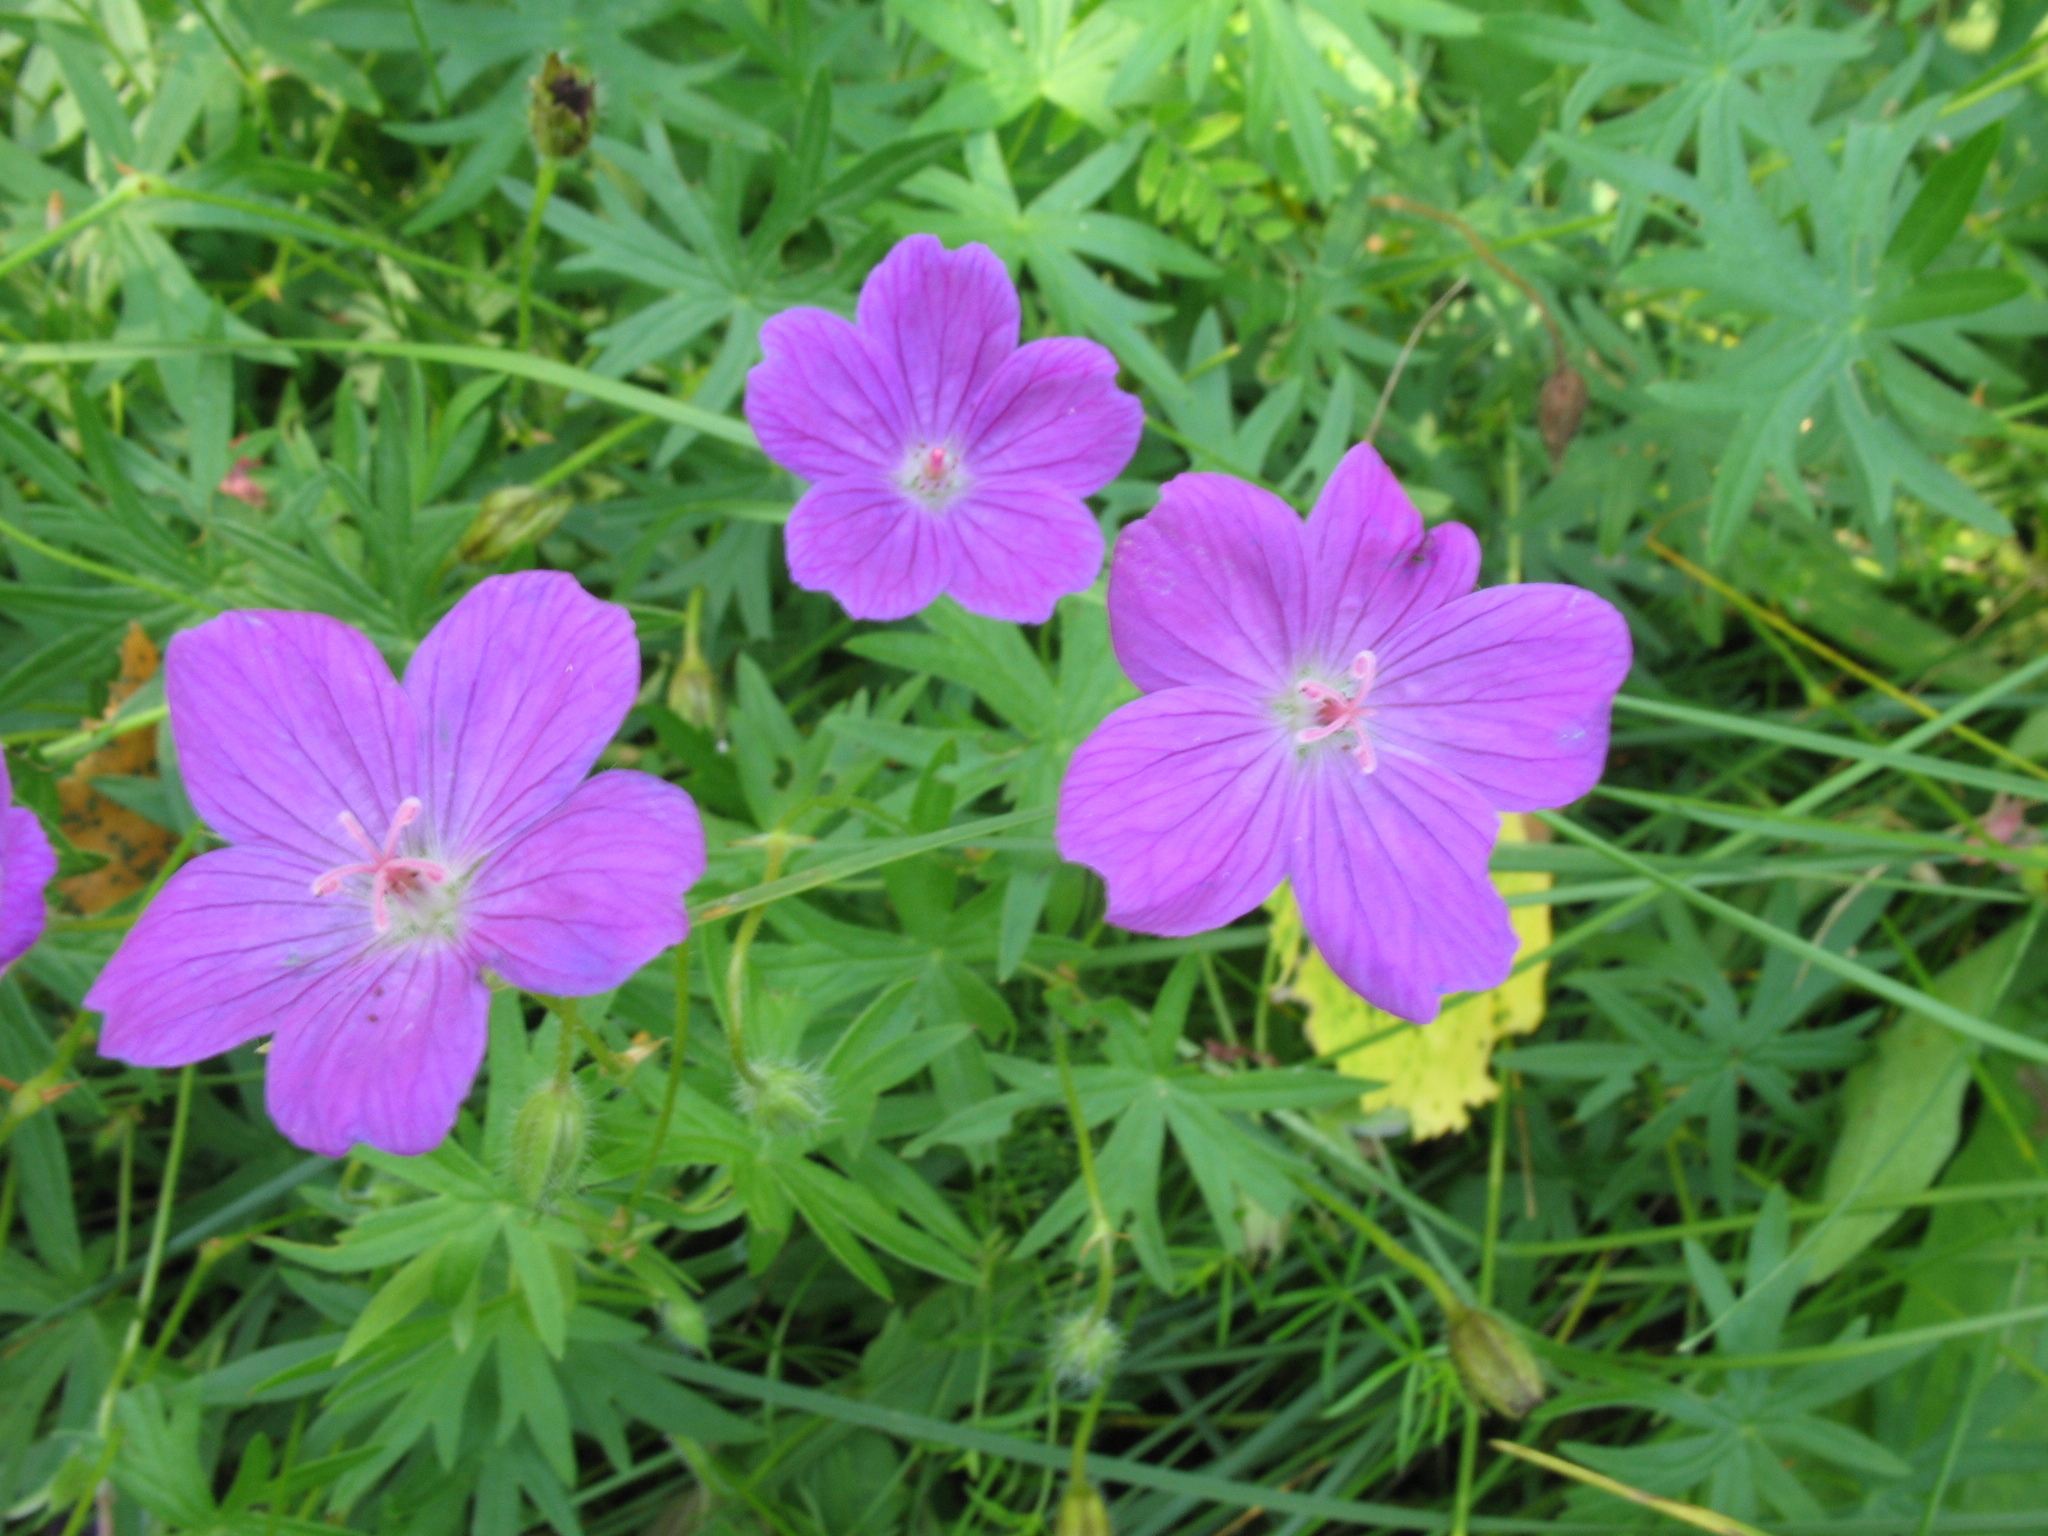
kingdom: Plantae
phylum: Tracheophyta
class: Magnoliopsida
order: Geraniales
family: Geraniaceae
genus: Geranium
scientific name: Geranium sanguineum
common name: Bloody crane's-bill
